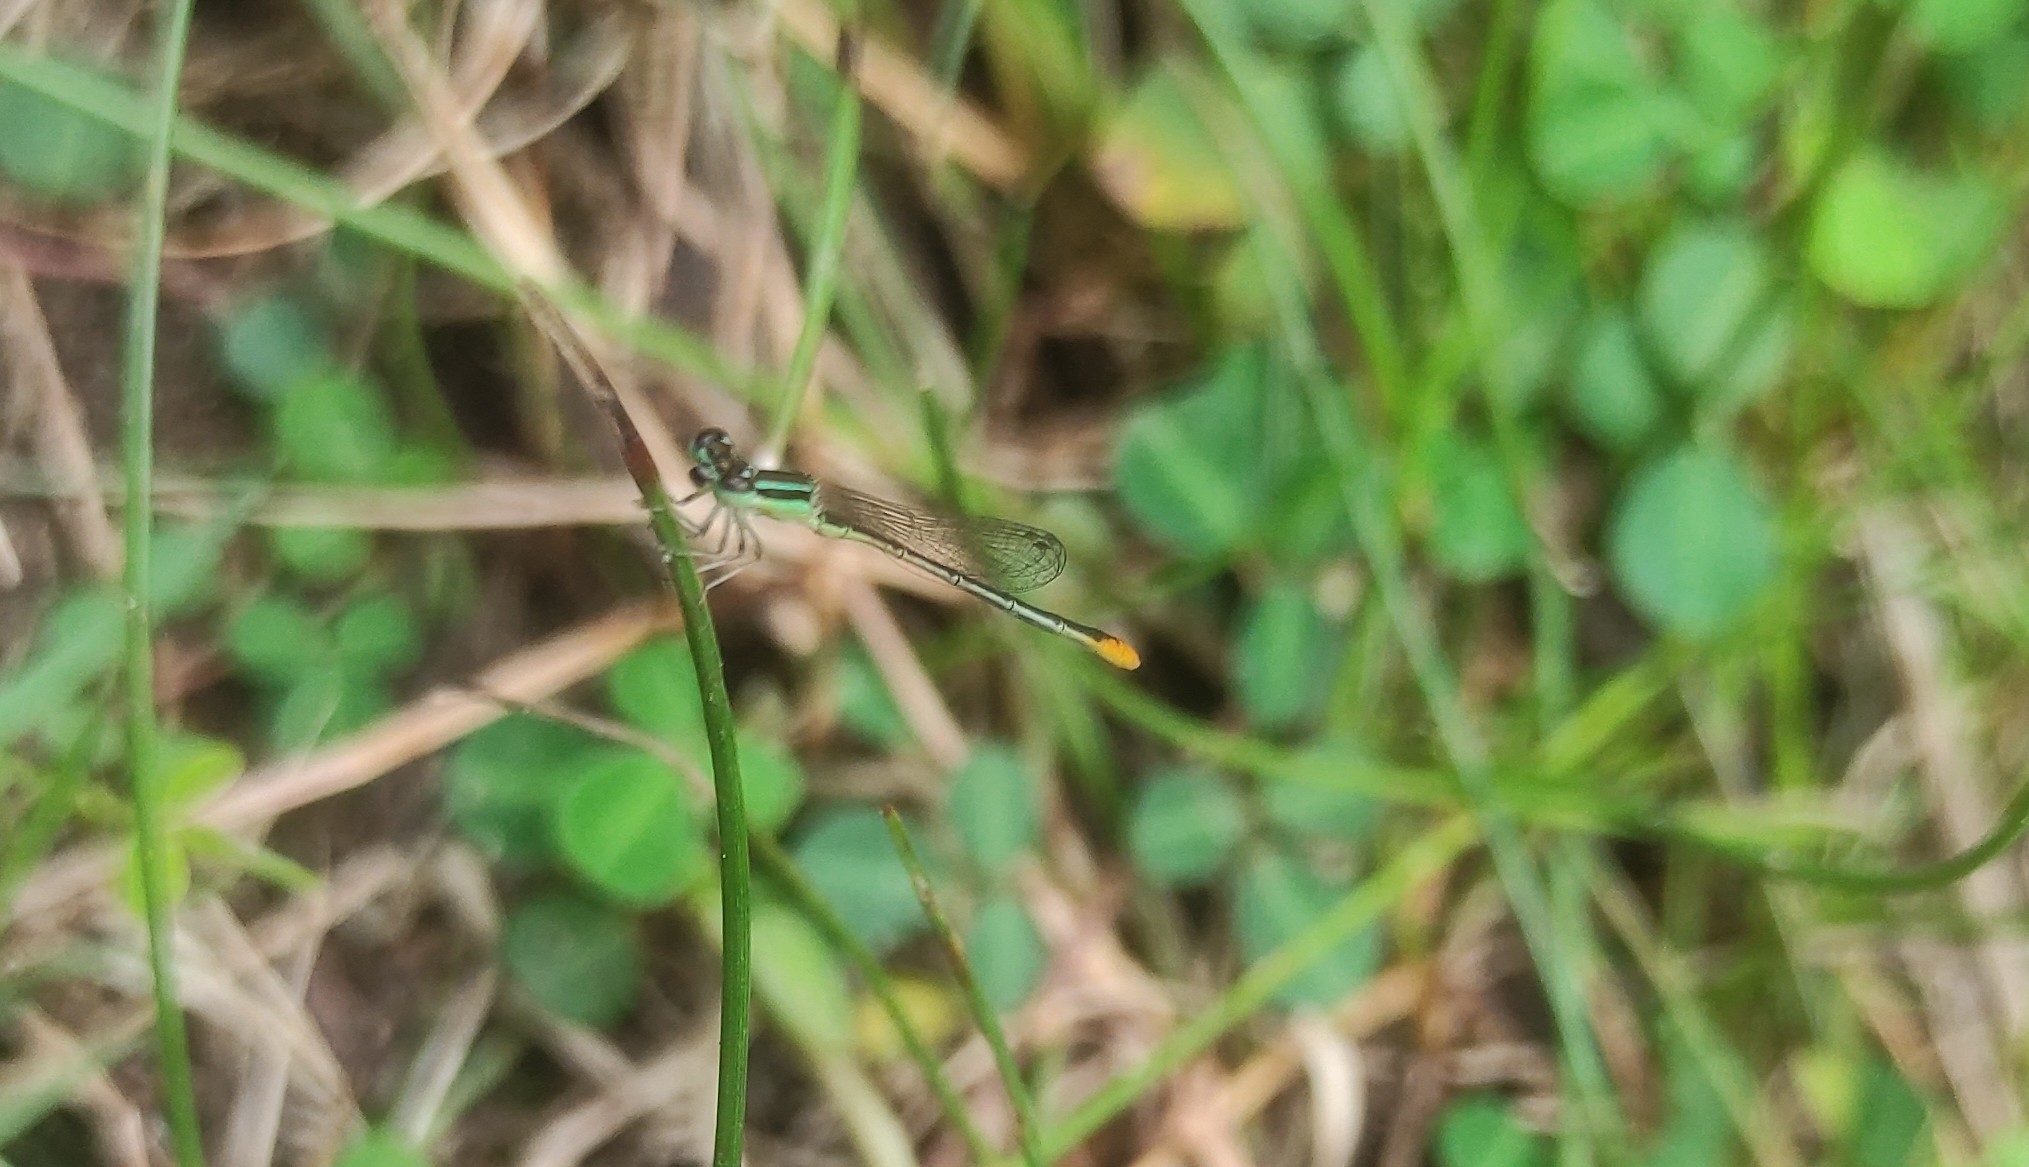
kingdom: Animalia
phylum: Arthropoda
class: Insecta
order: Odonata
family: Coenagrionidae
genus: Agriocnemis
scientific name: Agriocnemis pygmaea
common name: Pygmy wisp
